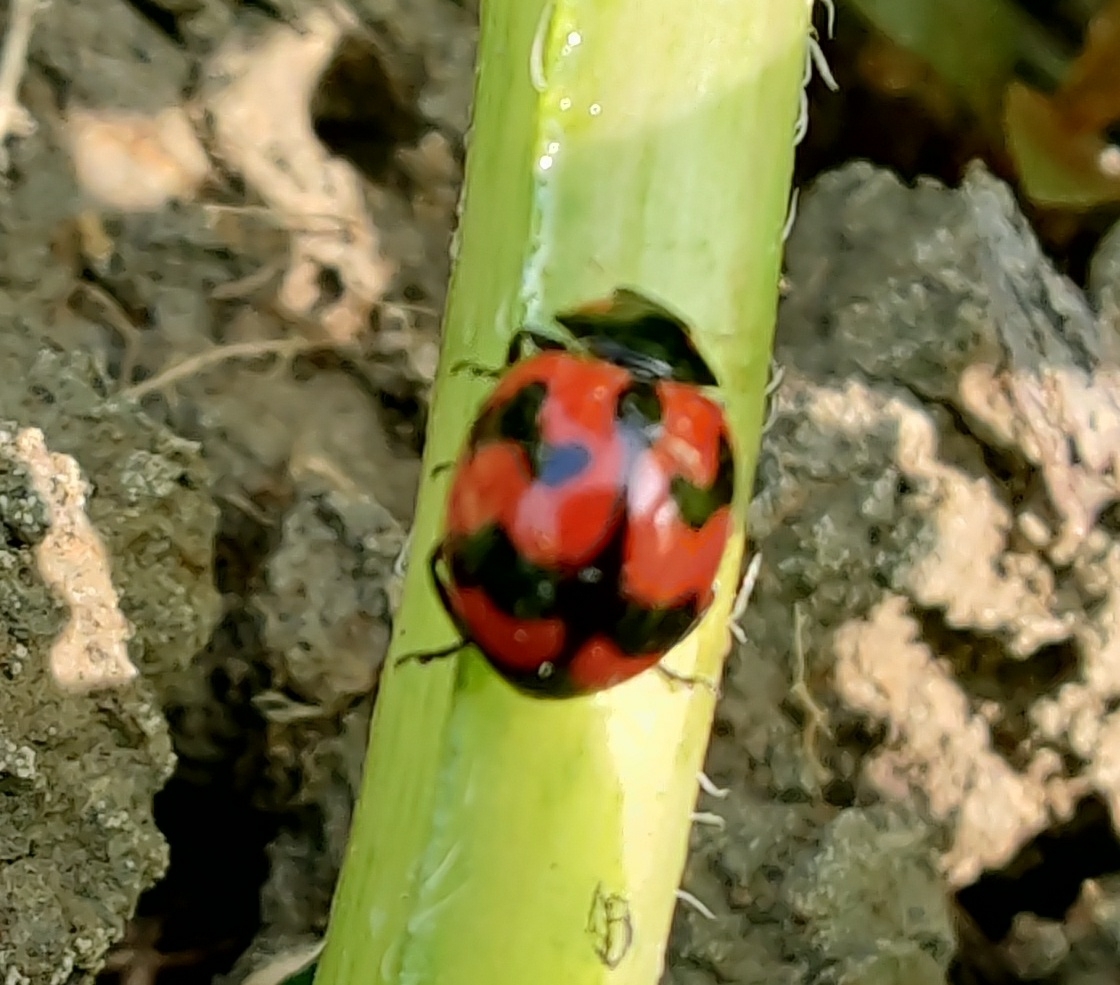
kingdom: Animalia
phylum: Arthropoda
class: Insecta
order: Coleoptera
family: Coccinellidae
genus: Coccinella
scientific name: Coccinella transversalis
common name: Transverse lady beetle
